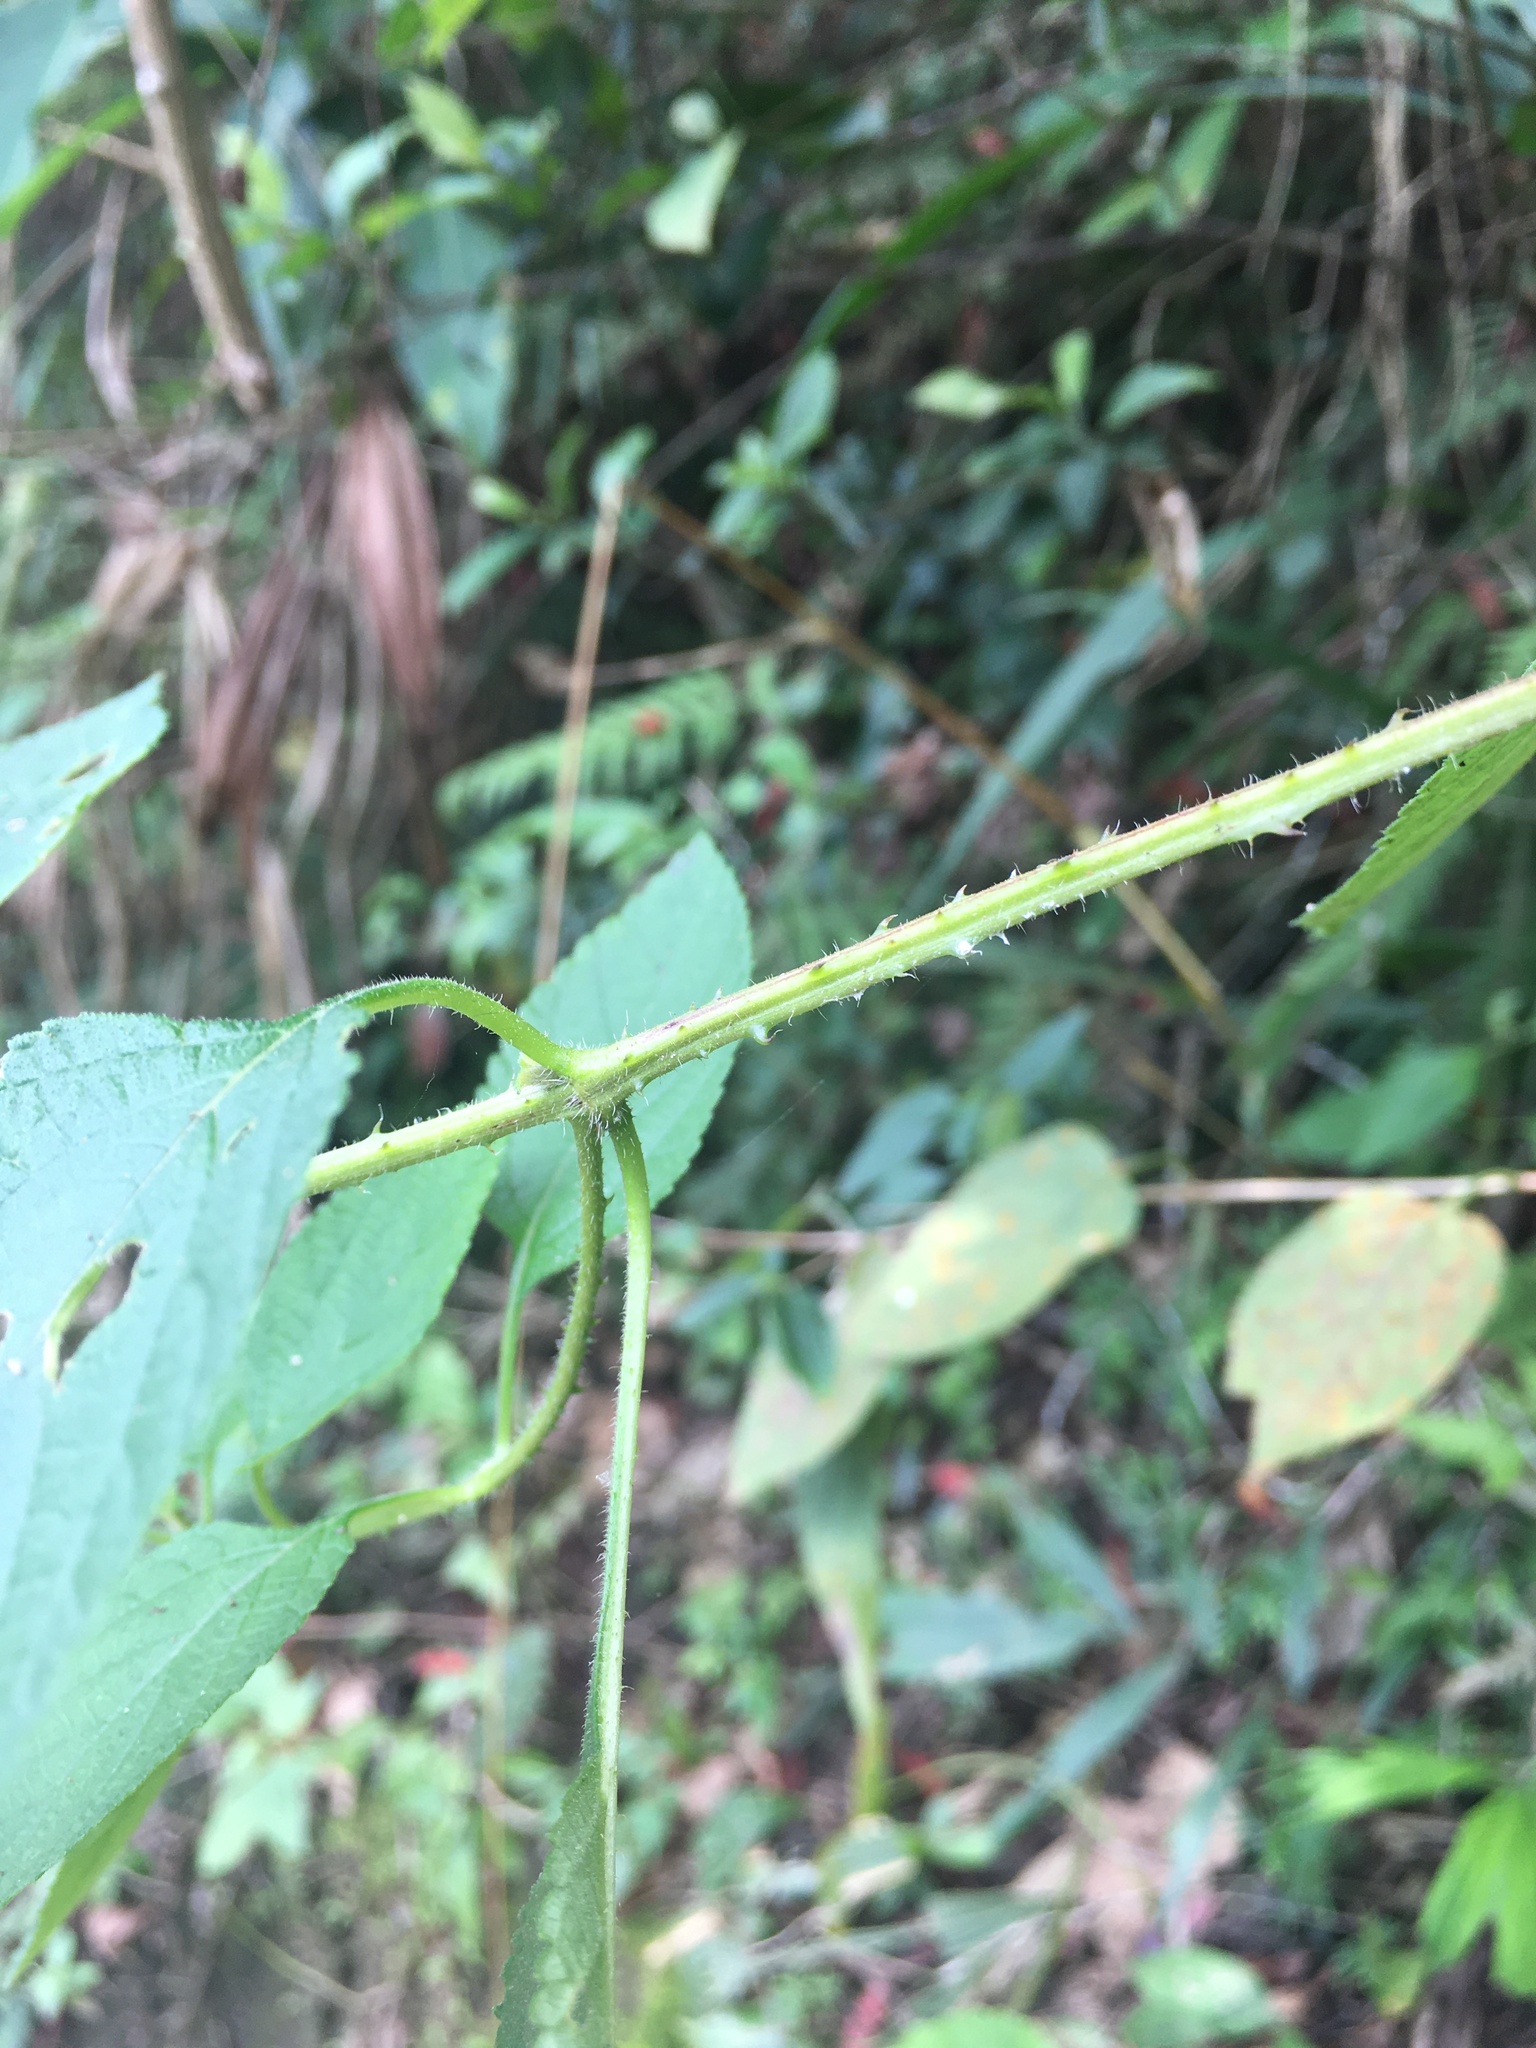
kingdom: Plantae
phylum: Tracheophyta
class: Magnoliopsida
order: Lamiales
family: Verbenaceae
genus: Lantana
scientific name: Lantana camara
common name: Lantana
